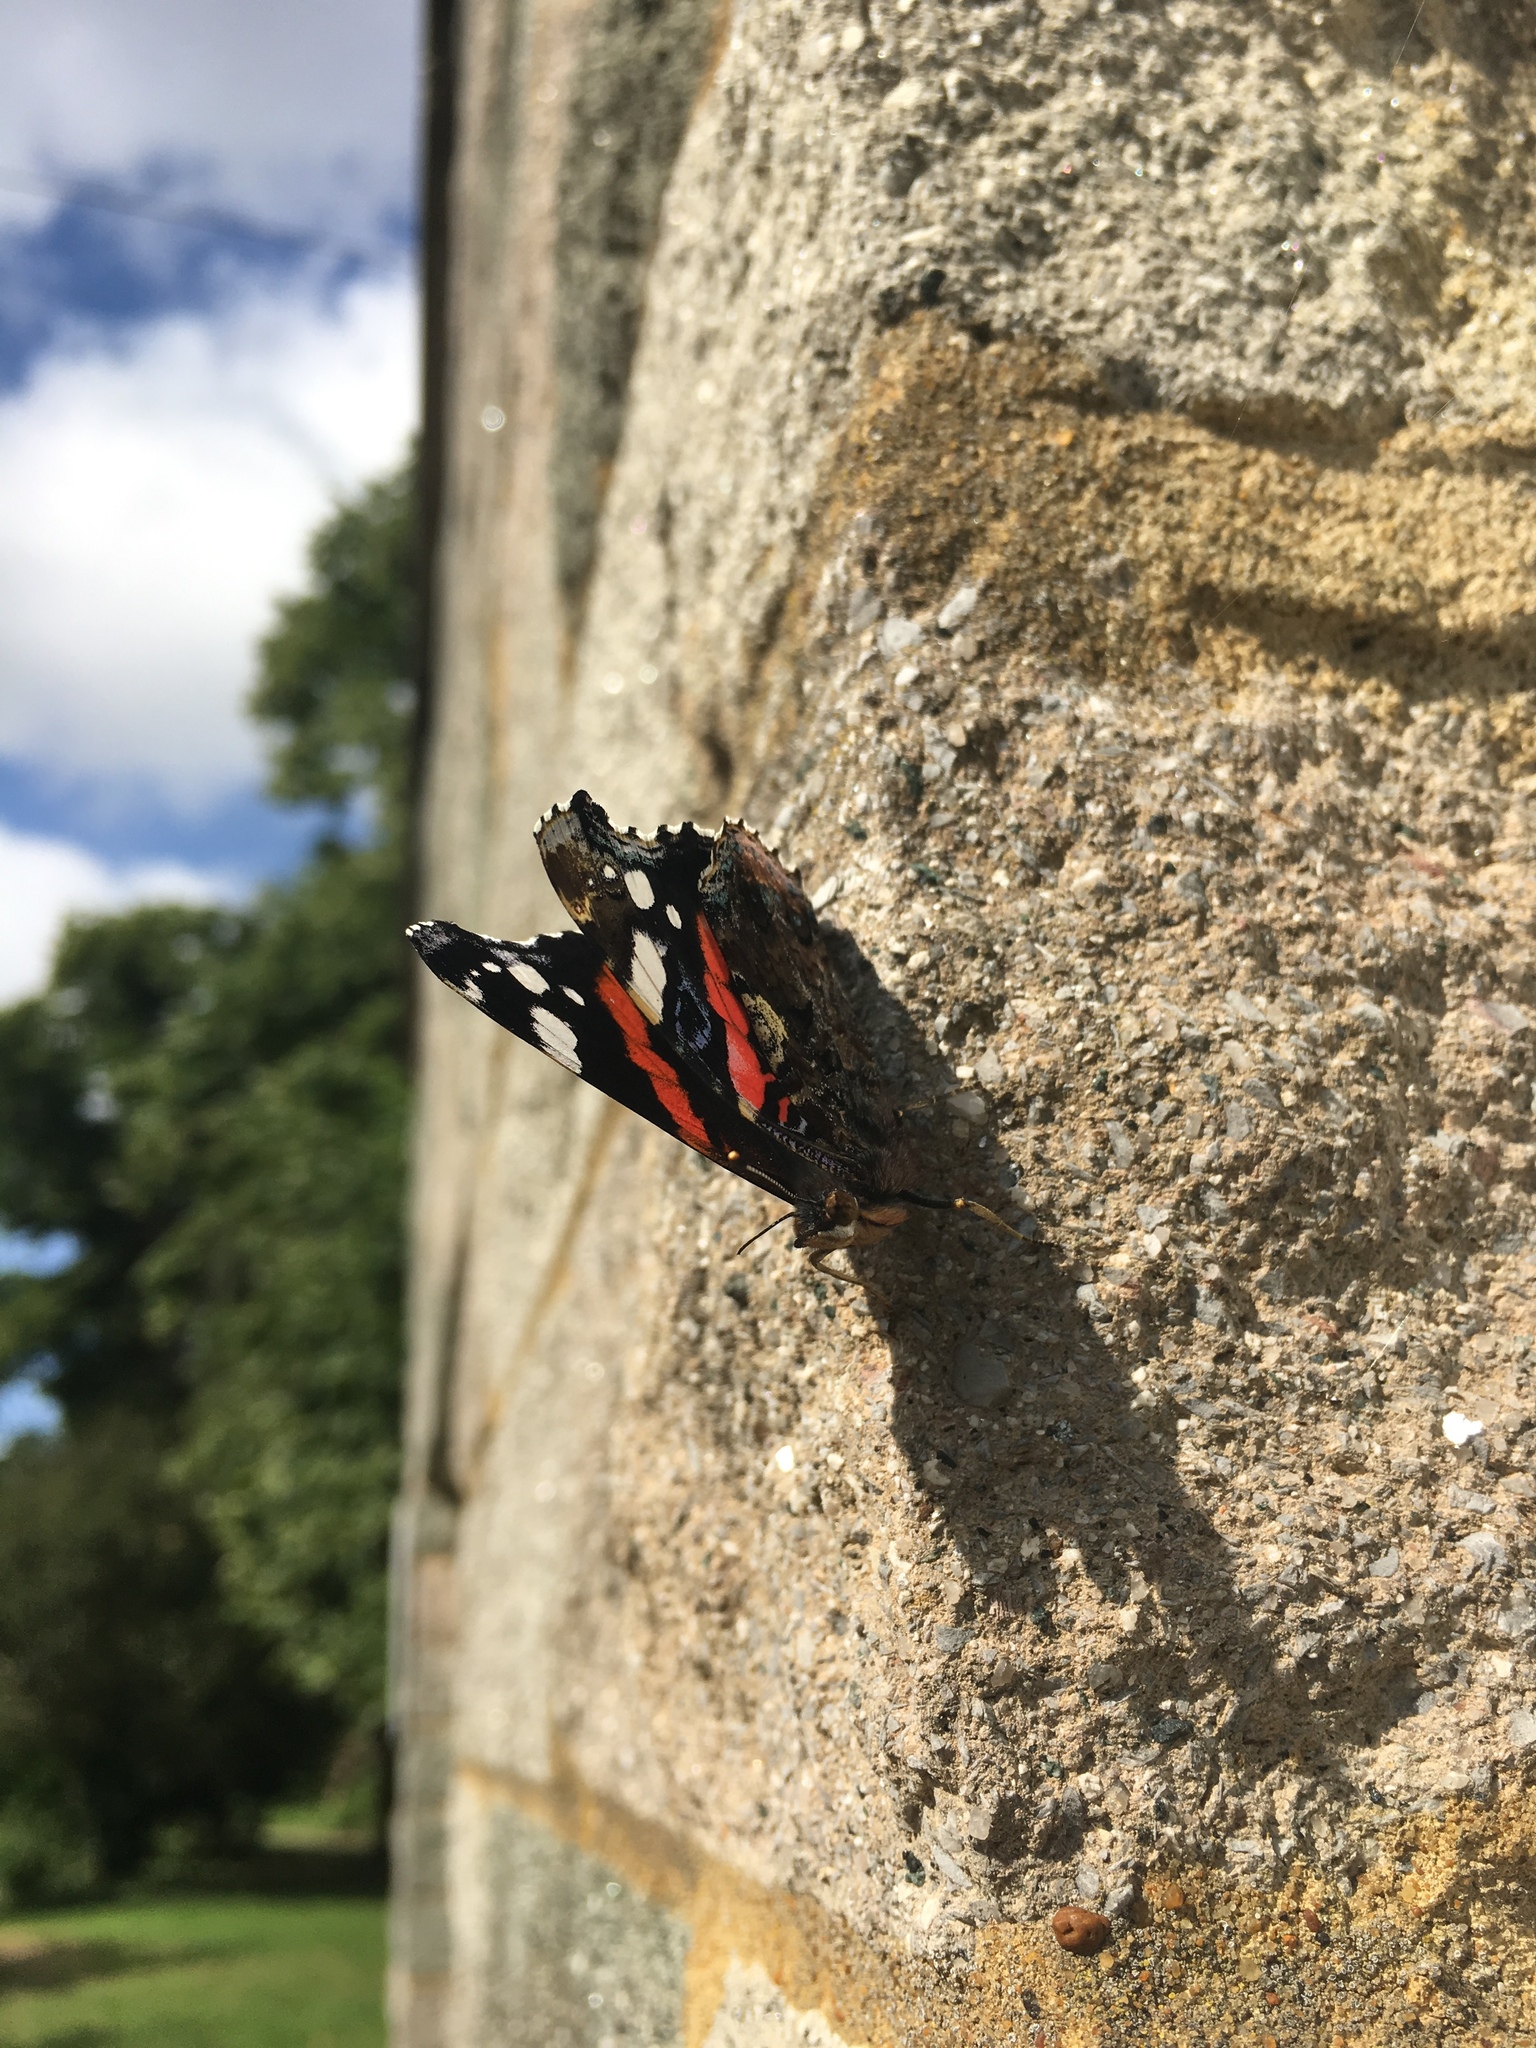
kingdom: Animalia
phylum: Arthropoda
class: Insecta
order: Lepidoptera
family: Nymphalidae
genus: Vanessa
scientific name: Vanessa atalanta
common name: Red admiral
